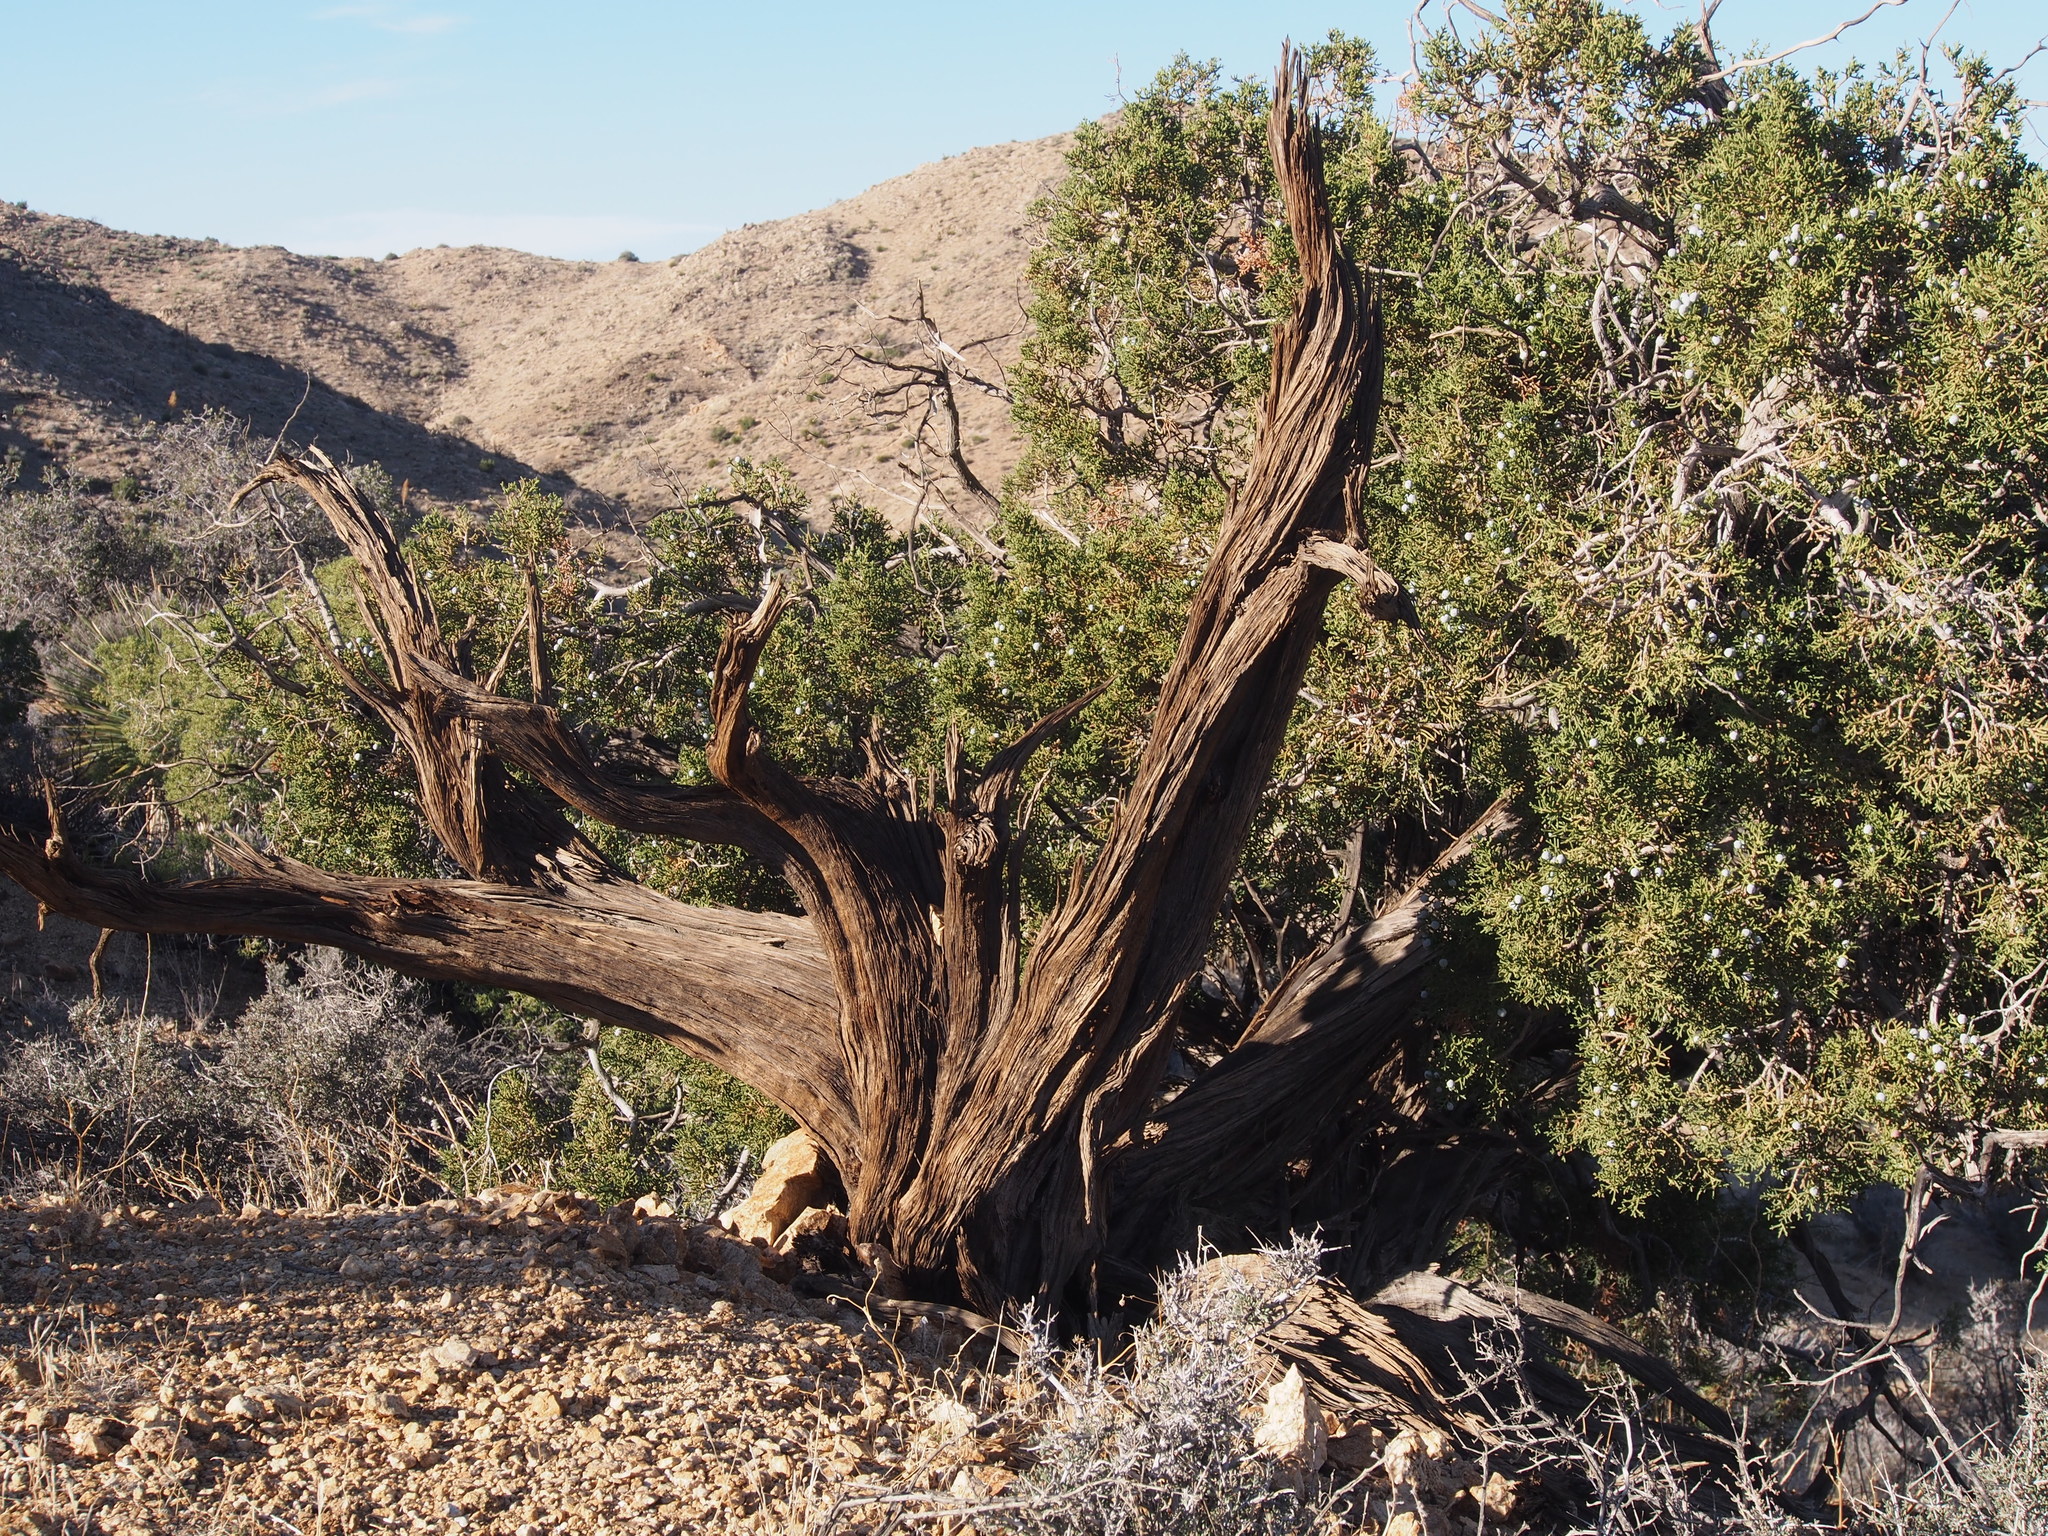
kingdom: Plantae
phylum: Tracheophyta
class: Pinopsida
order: Pinales
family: Cupressaceae
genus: Juniperus
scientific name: Juniperus californica
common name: California juniper
